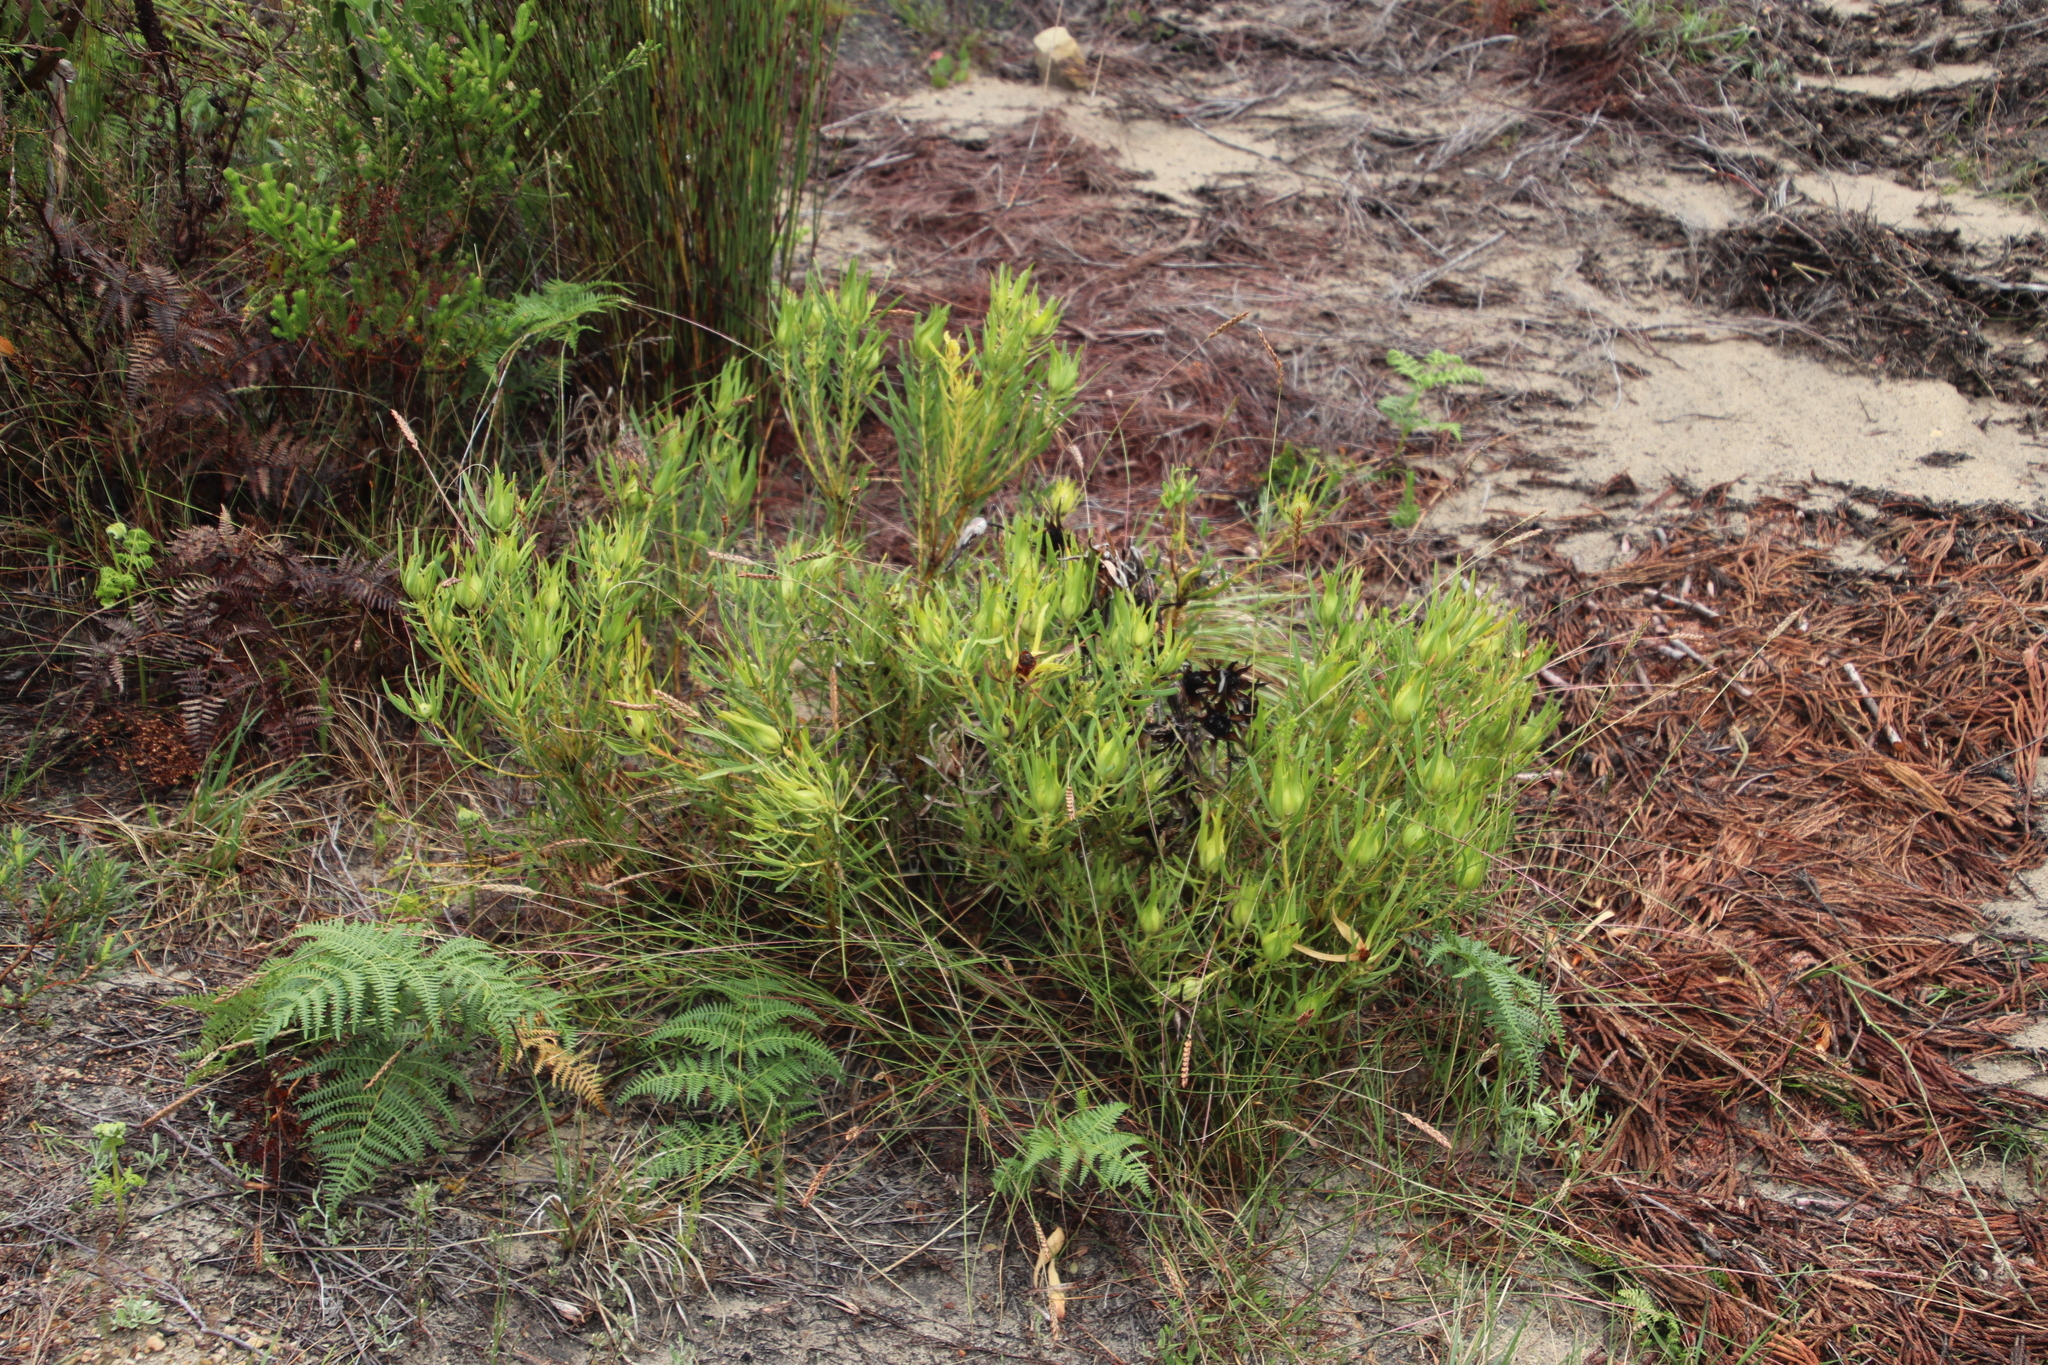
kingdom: Plantae
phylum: Tracheophyta
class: Magnoliopsida
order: Proteales
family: Proteaceae
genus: Leucadendron
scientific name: Leucadendron salignum
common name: Common sunshine conebush
